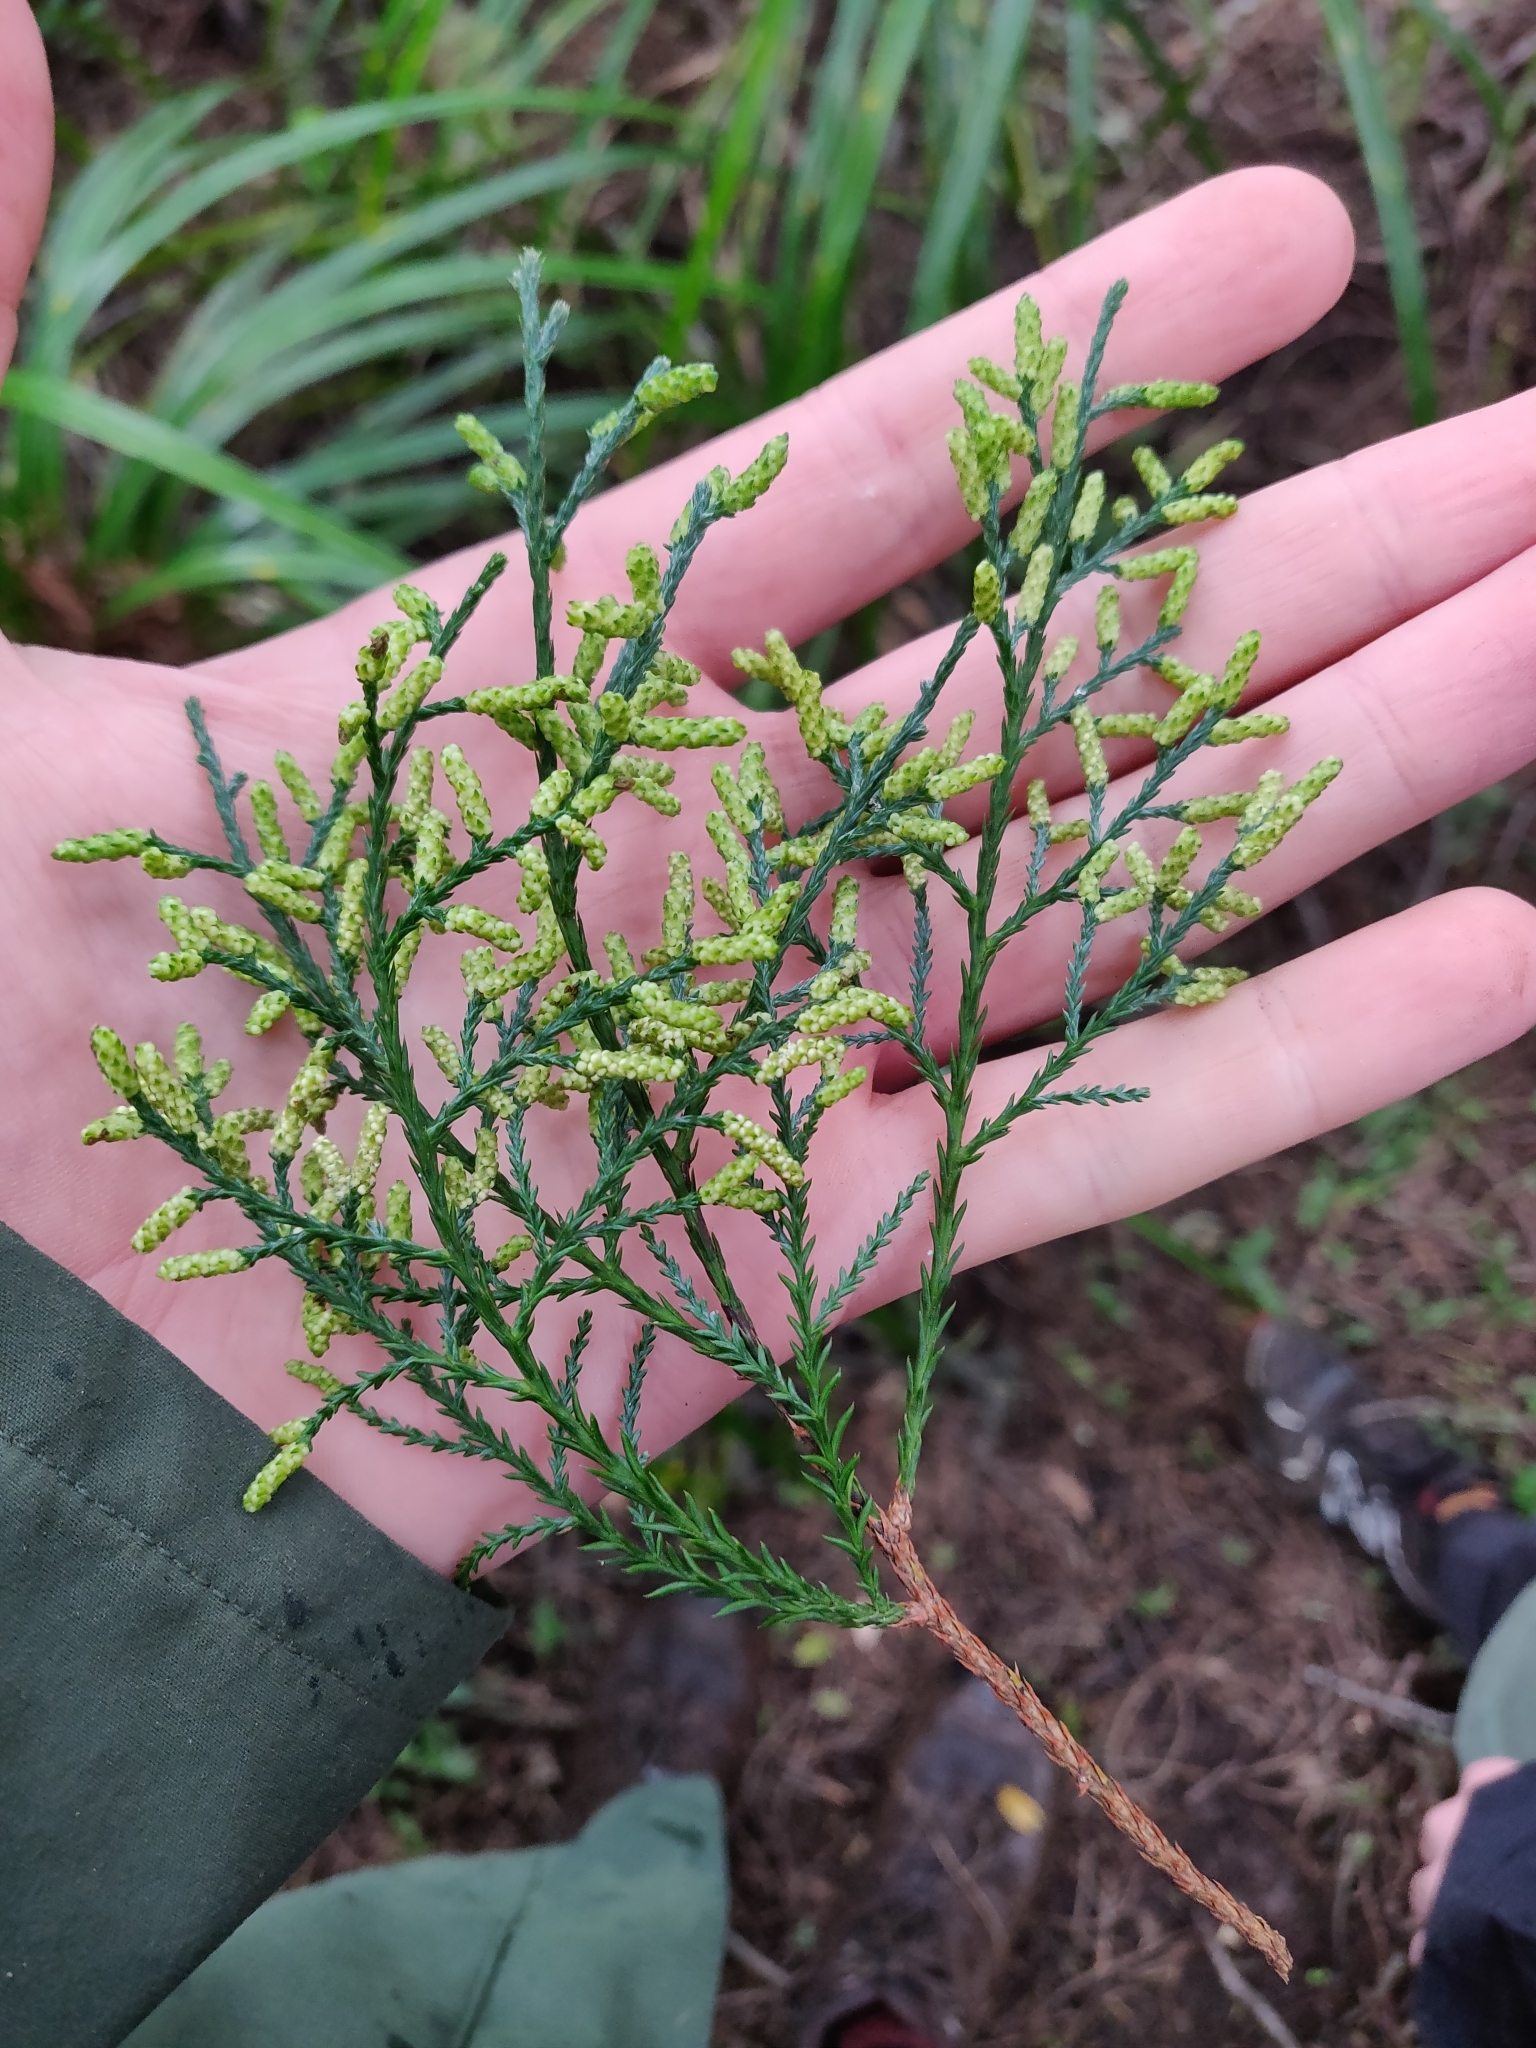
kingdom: Plantae
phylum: Tracheophyta
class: Pinopsida
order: Pinales
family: Podocarpaceae
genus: Dacrycarpus
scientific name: Dacrycarpus dacrydioides
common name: White pine
